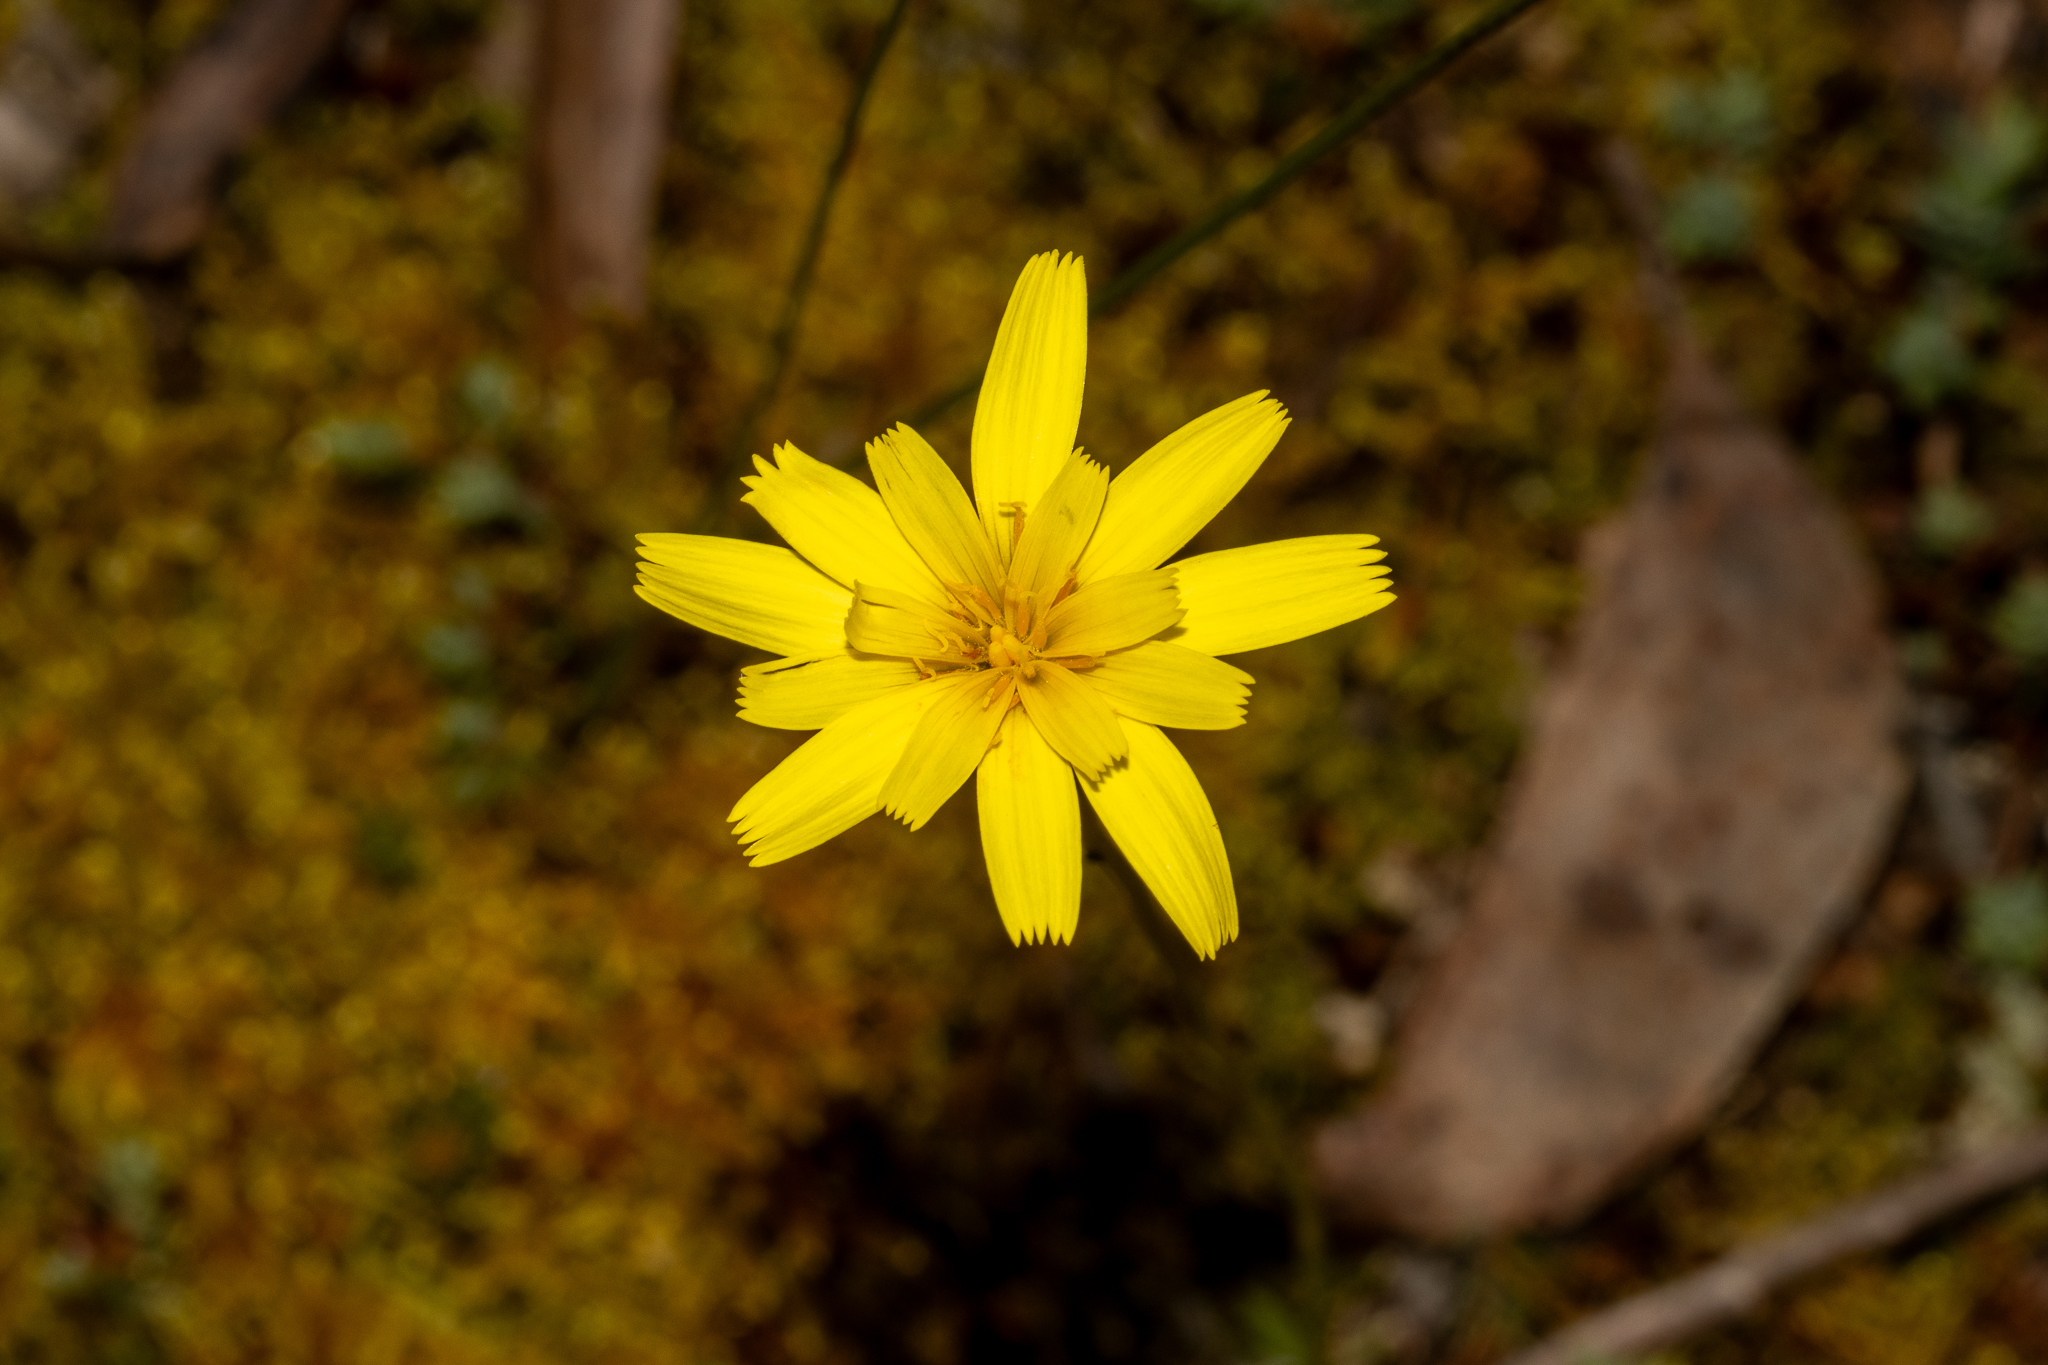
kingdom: Plantae
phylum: Tracheophyta
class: Magnoliopsida
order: Asterales
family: Asteraceae
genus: Microseris
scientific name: Microseris lanceolata
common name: Yam daisy
